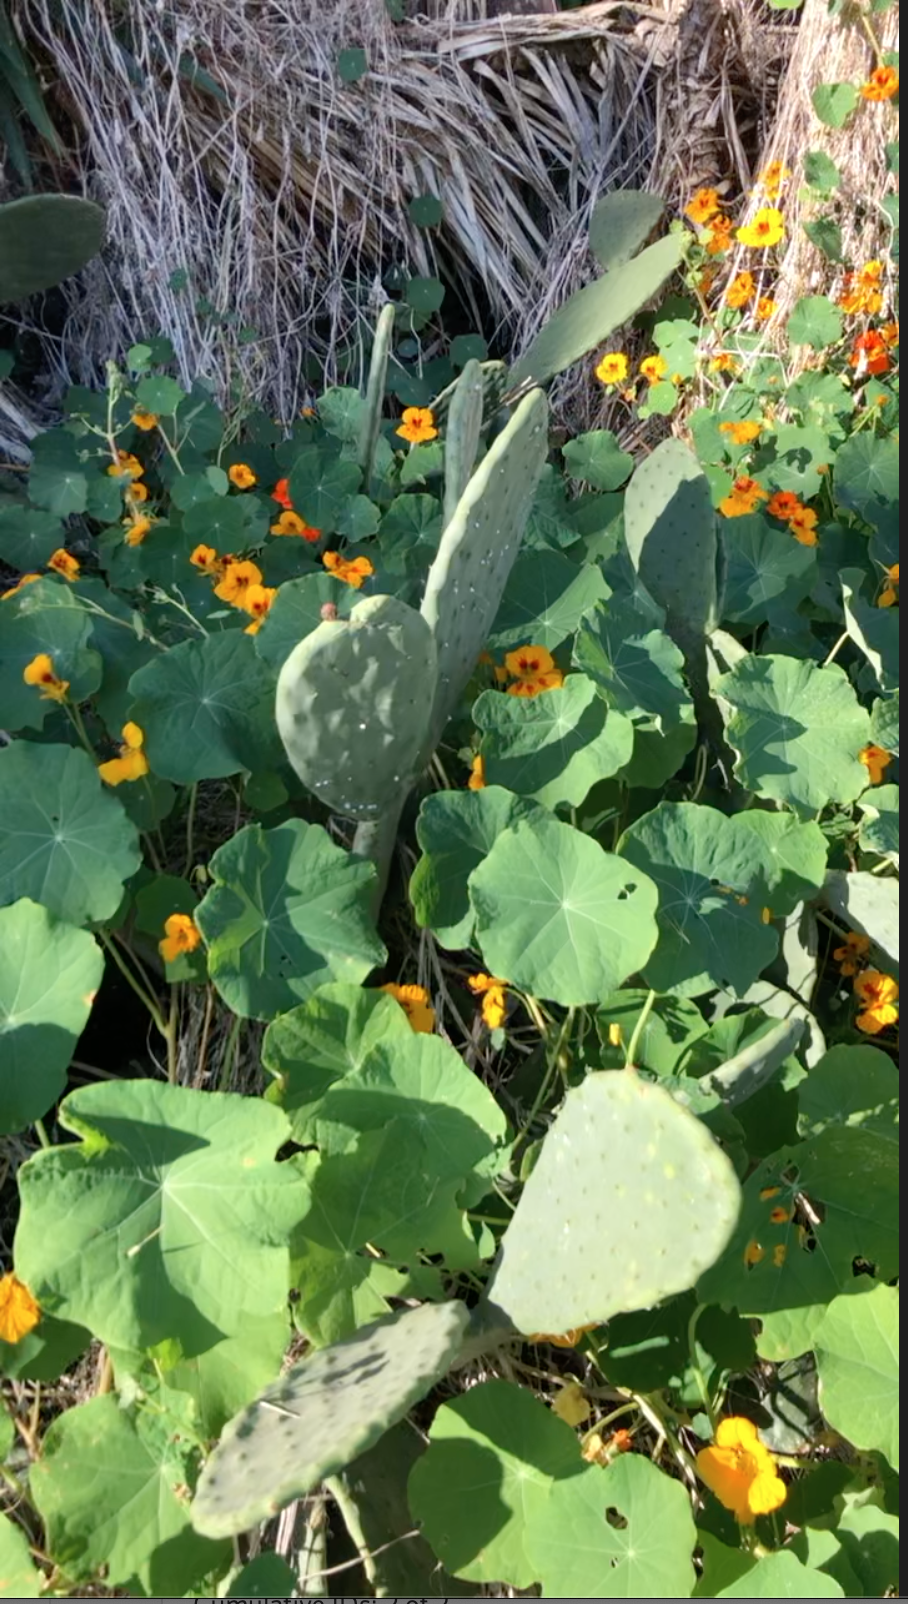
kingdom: Plantae
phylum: Tracheophyta
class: Magnoliopsida
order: Caryophyllales
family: Cactaceae
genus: Opuntia
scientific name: Opuntia ficus-indica
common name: Barbary fig
